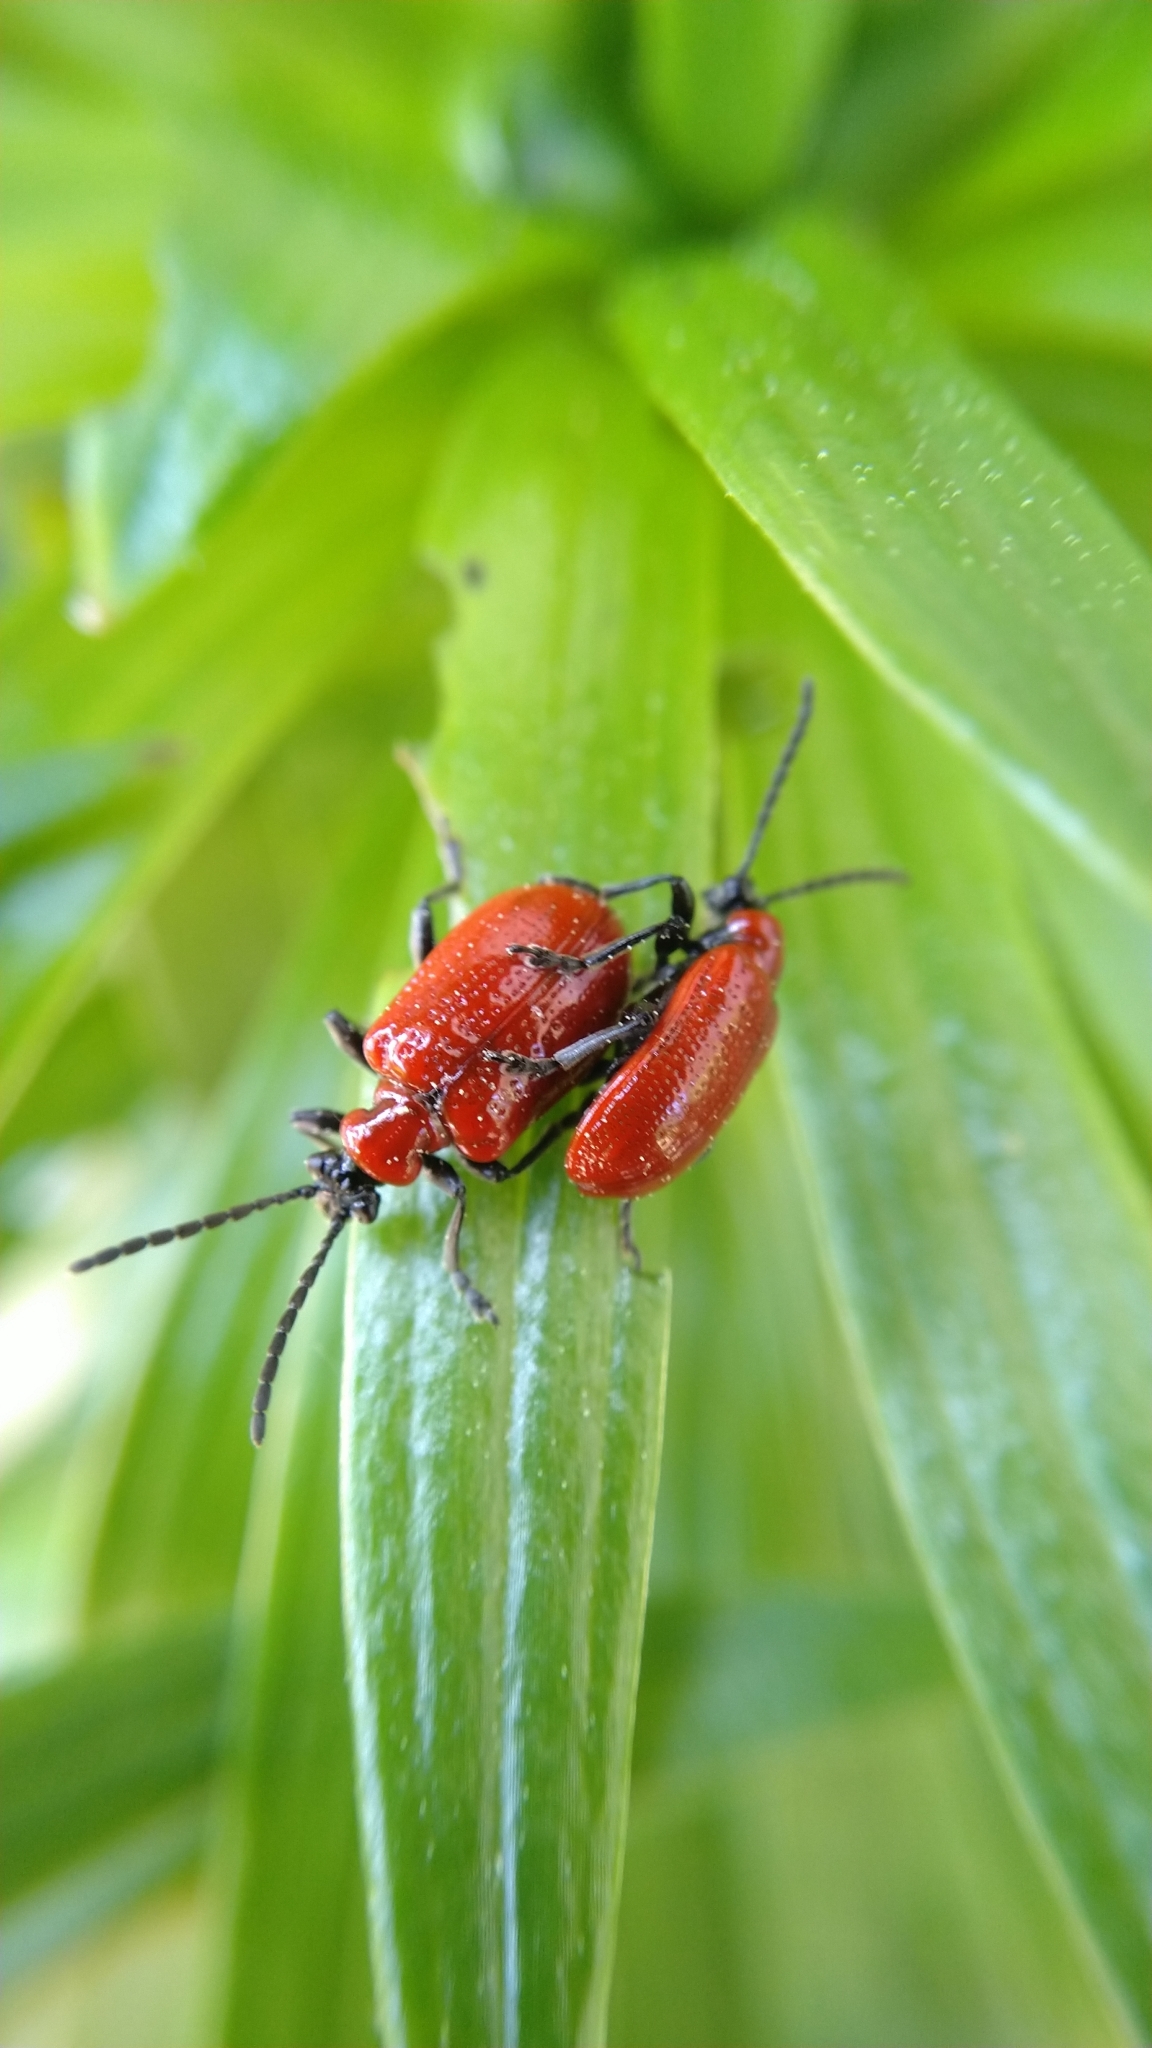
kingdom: Animalia
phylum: Arthropoda
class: Insecta
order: Coleoptera
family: Chrysomelidae
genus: Lilioceris
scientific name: Lilioceris lilii
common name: Lily beetle
